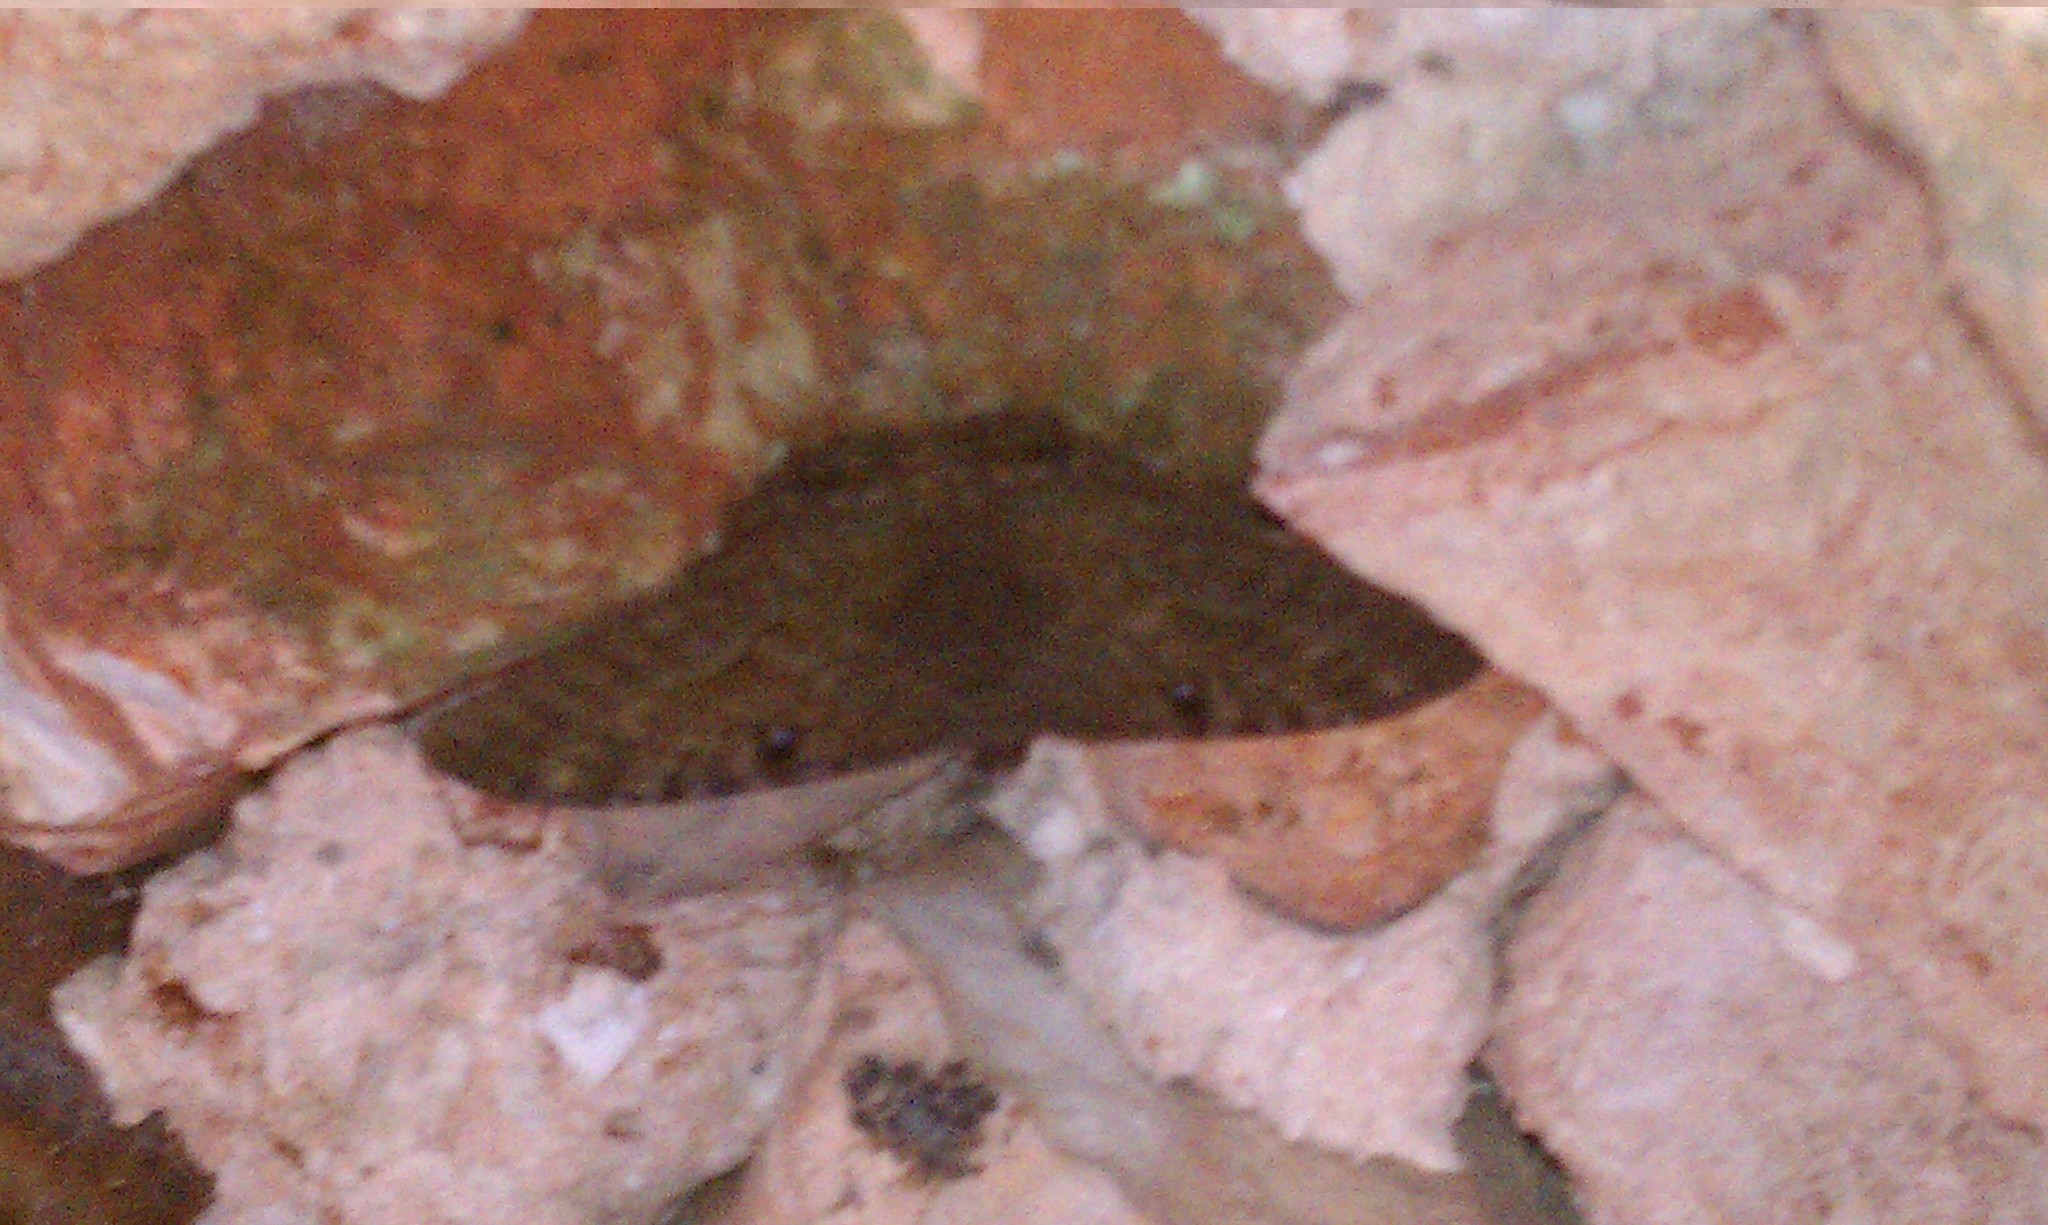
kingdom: Animalia
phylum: Arthropoda
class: Insecta
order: Lepidoptera
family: Erebidae
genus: Ascalapha
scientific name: Ascalapha odorata
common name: Black witch
